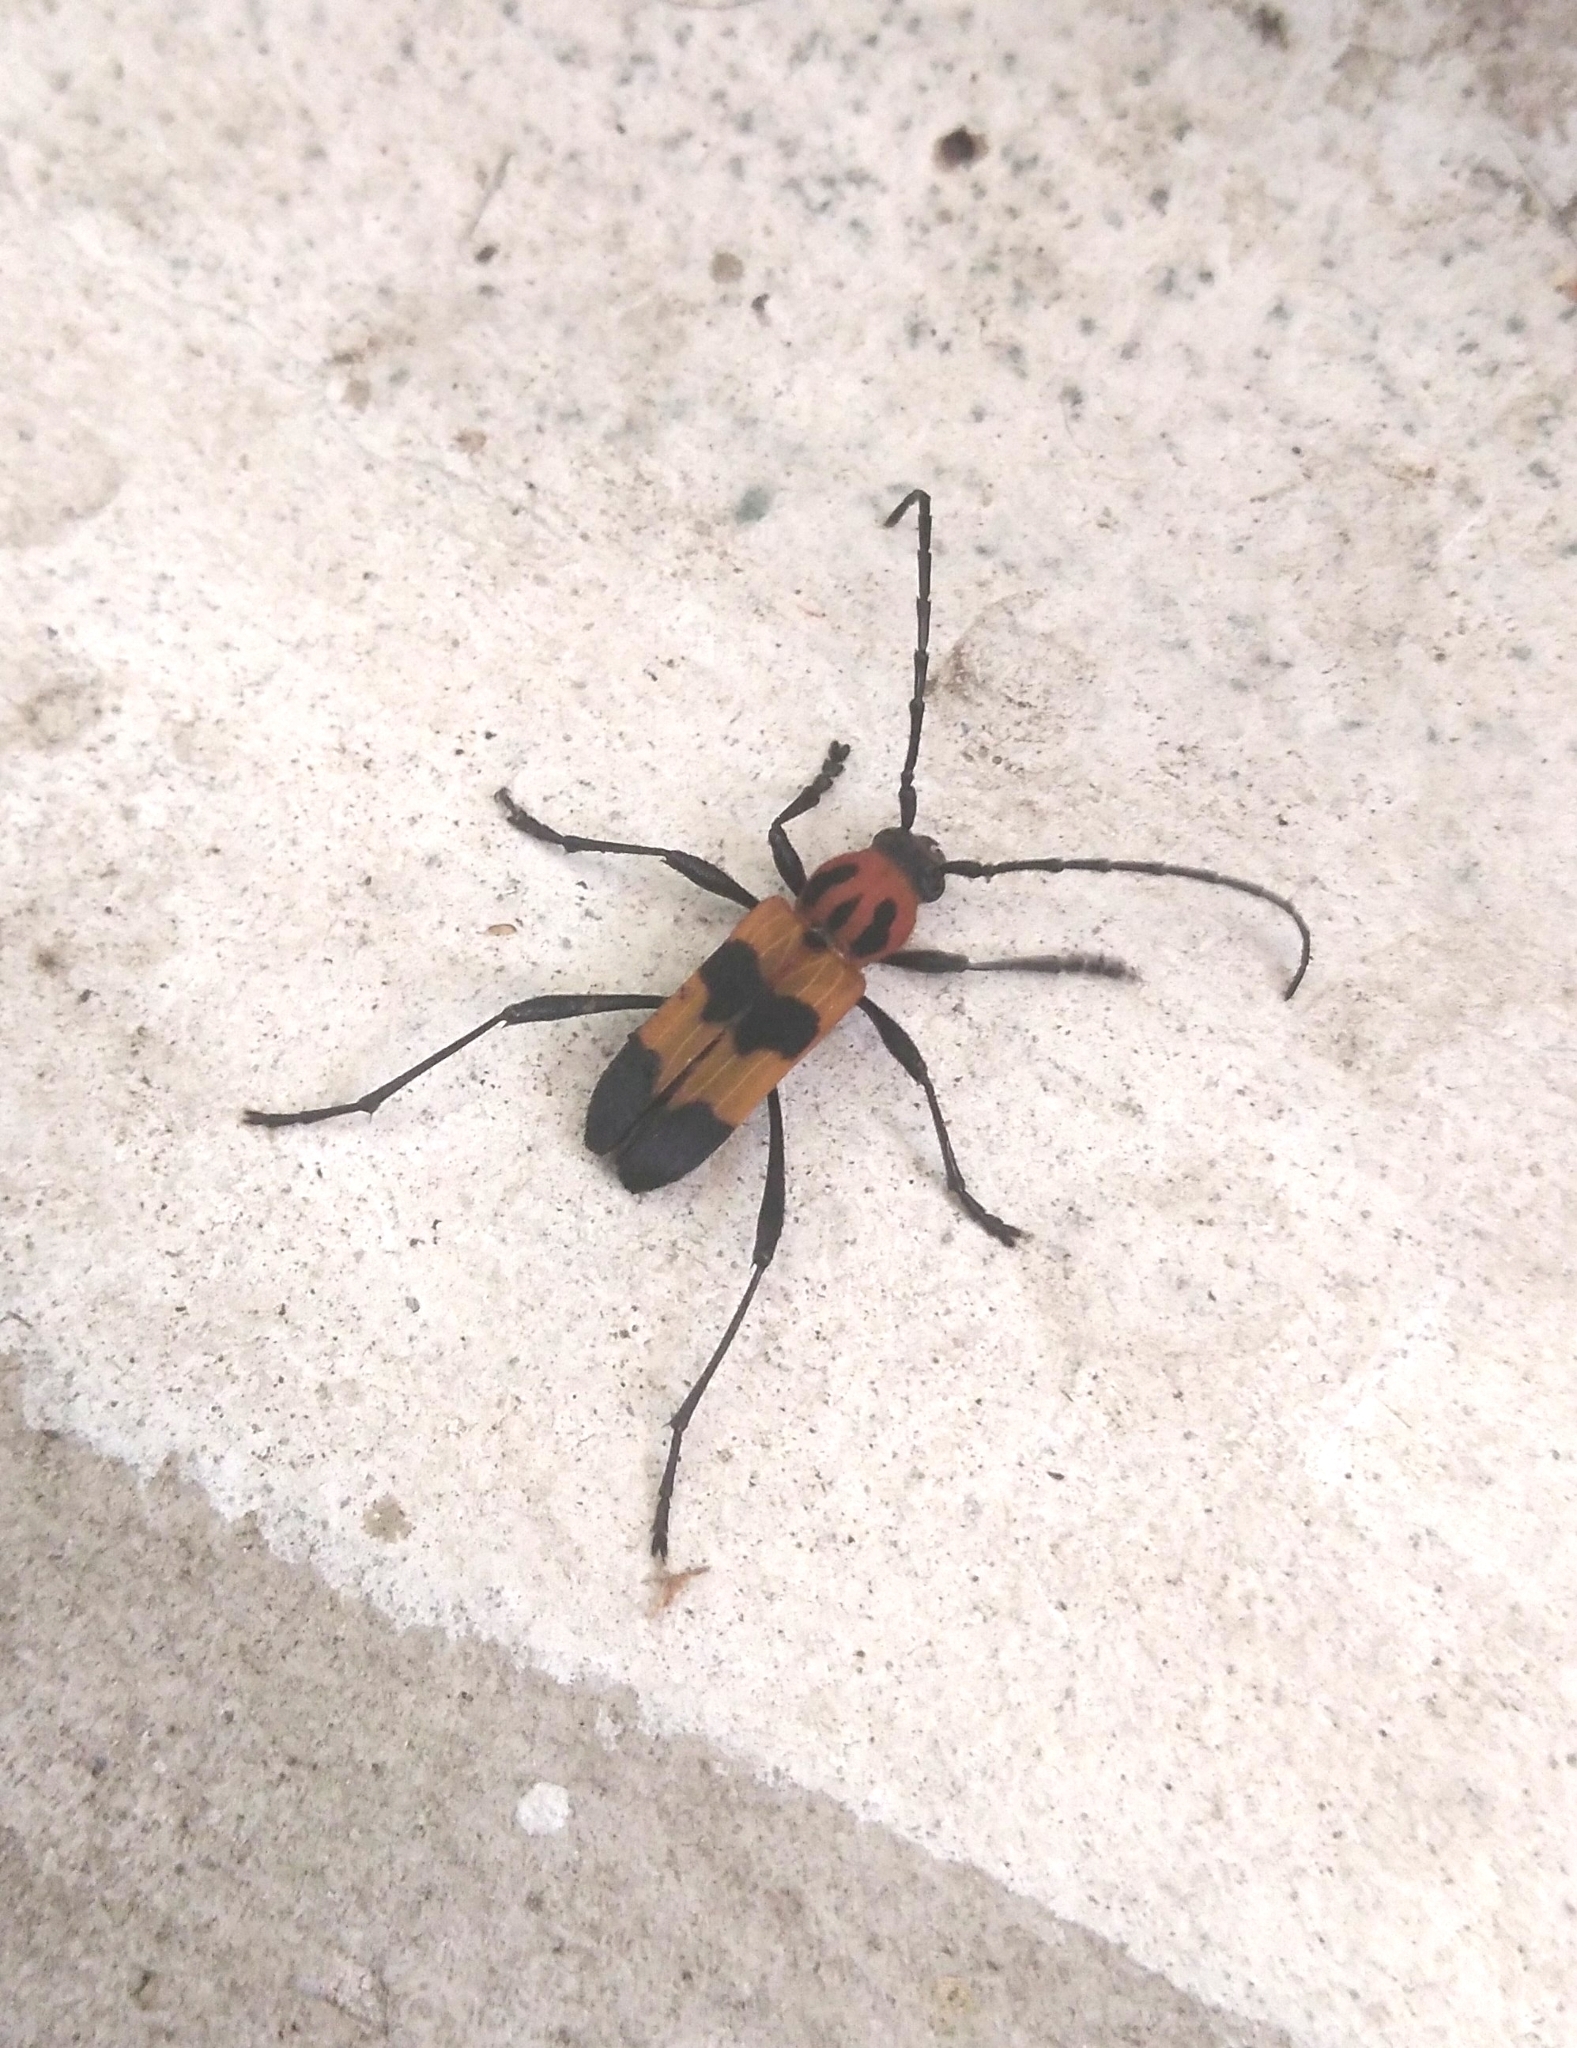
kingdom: Animalia
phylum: Arthropoda
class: Insecta
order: Coleoptera
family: Cerambycidae
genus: Erythrochiton
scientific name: Erythrochiton jucundum
